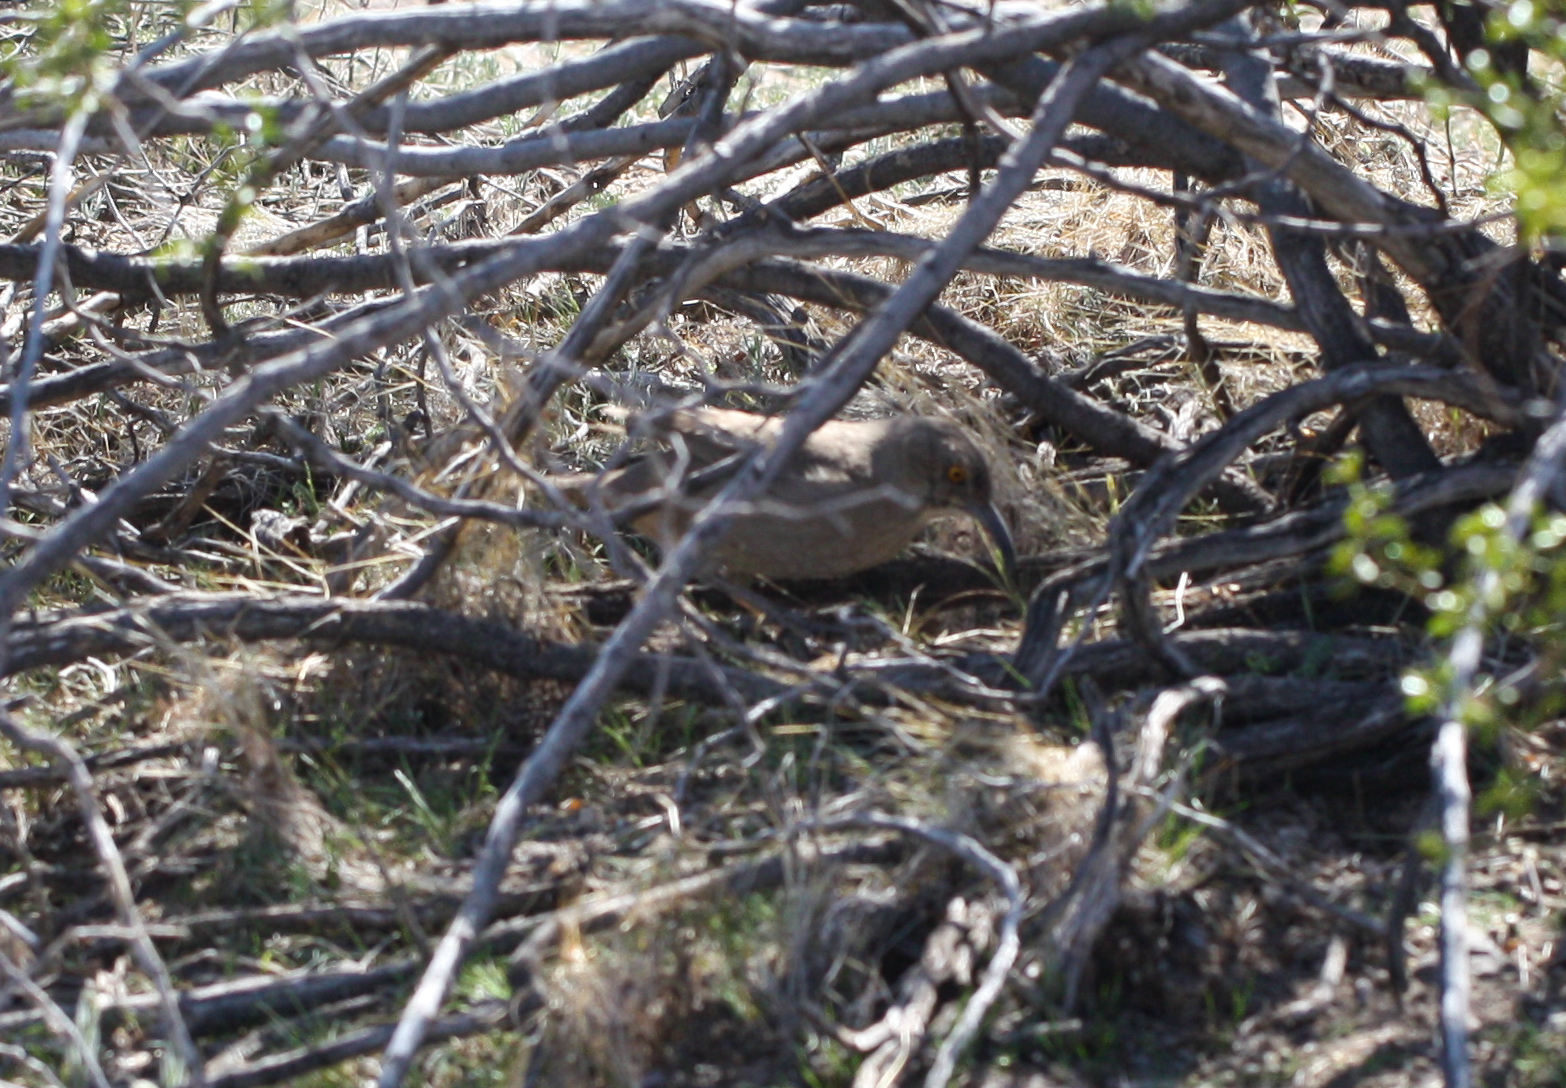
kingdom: Animalia
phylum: Chordata
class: Aves
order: Passeriformes
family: Mimidae
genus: Toxostoma
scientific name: Toxostoma curvirostre
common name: Curve-billed thrasher
